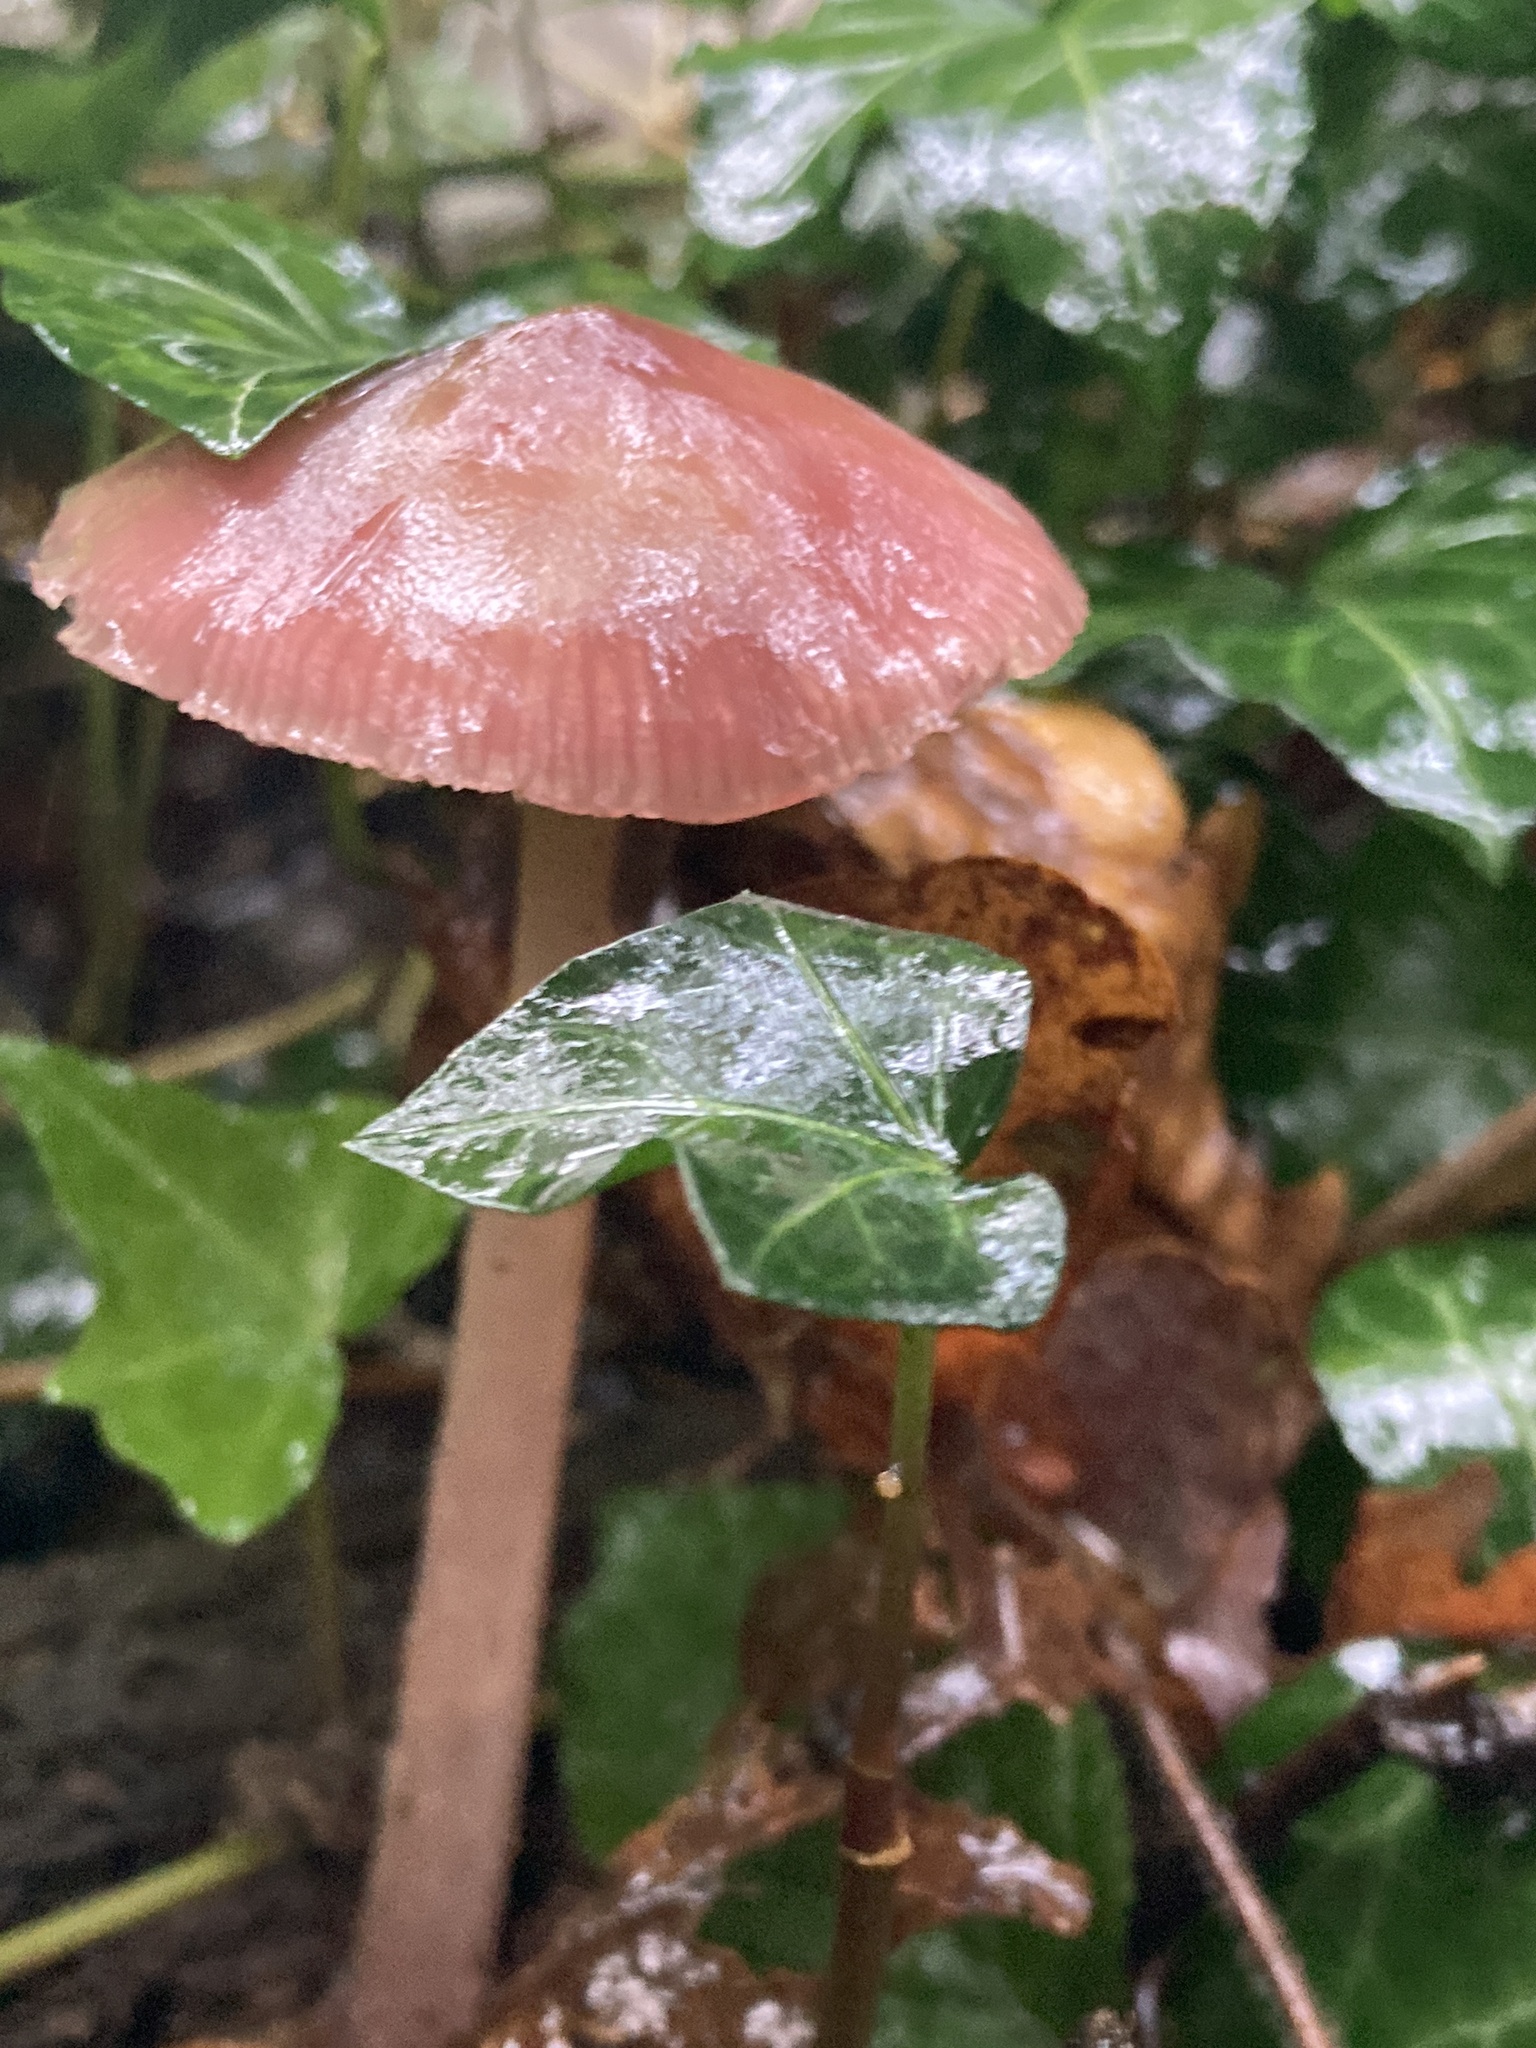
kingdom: Fungi
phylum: Basidiomycota
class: Agaricomycetes
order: Agaricales
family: Mycenaceae
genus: Mycena
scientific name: Mycena rosea
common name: Rosy bonnet
